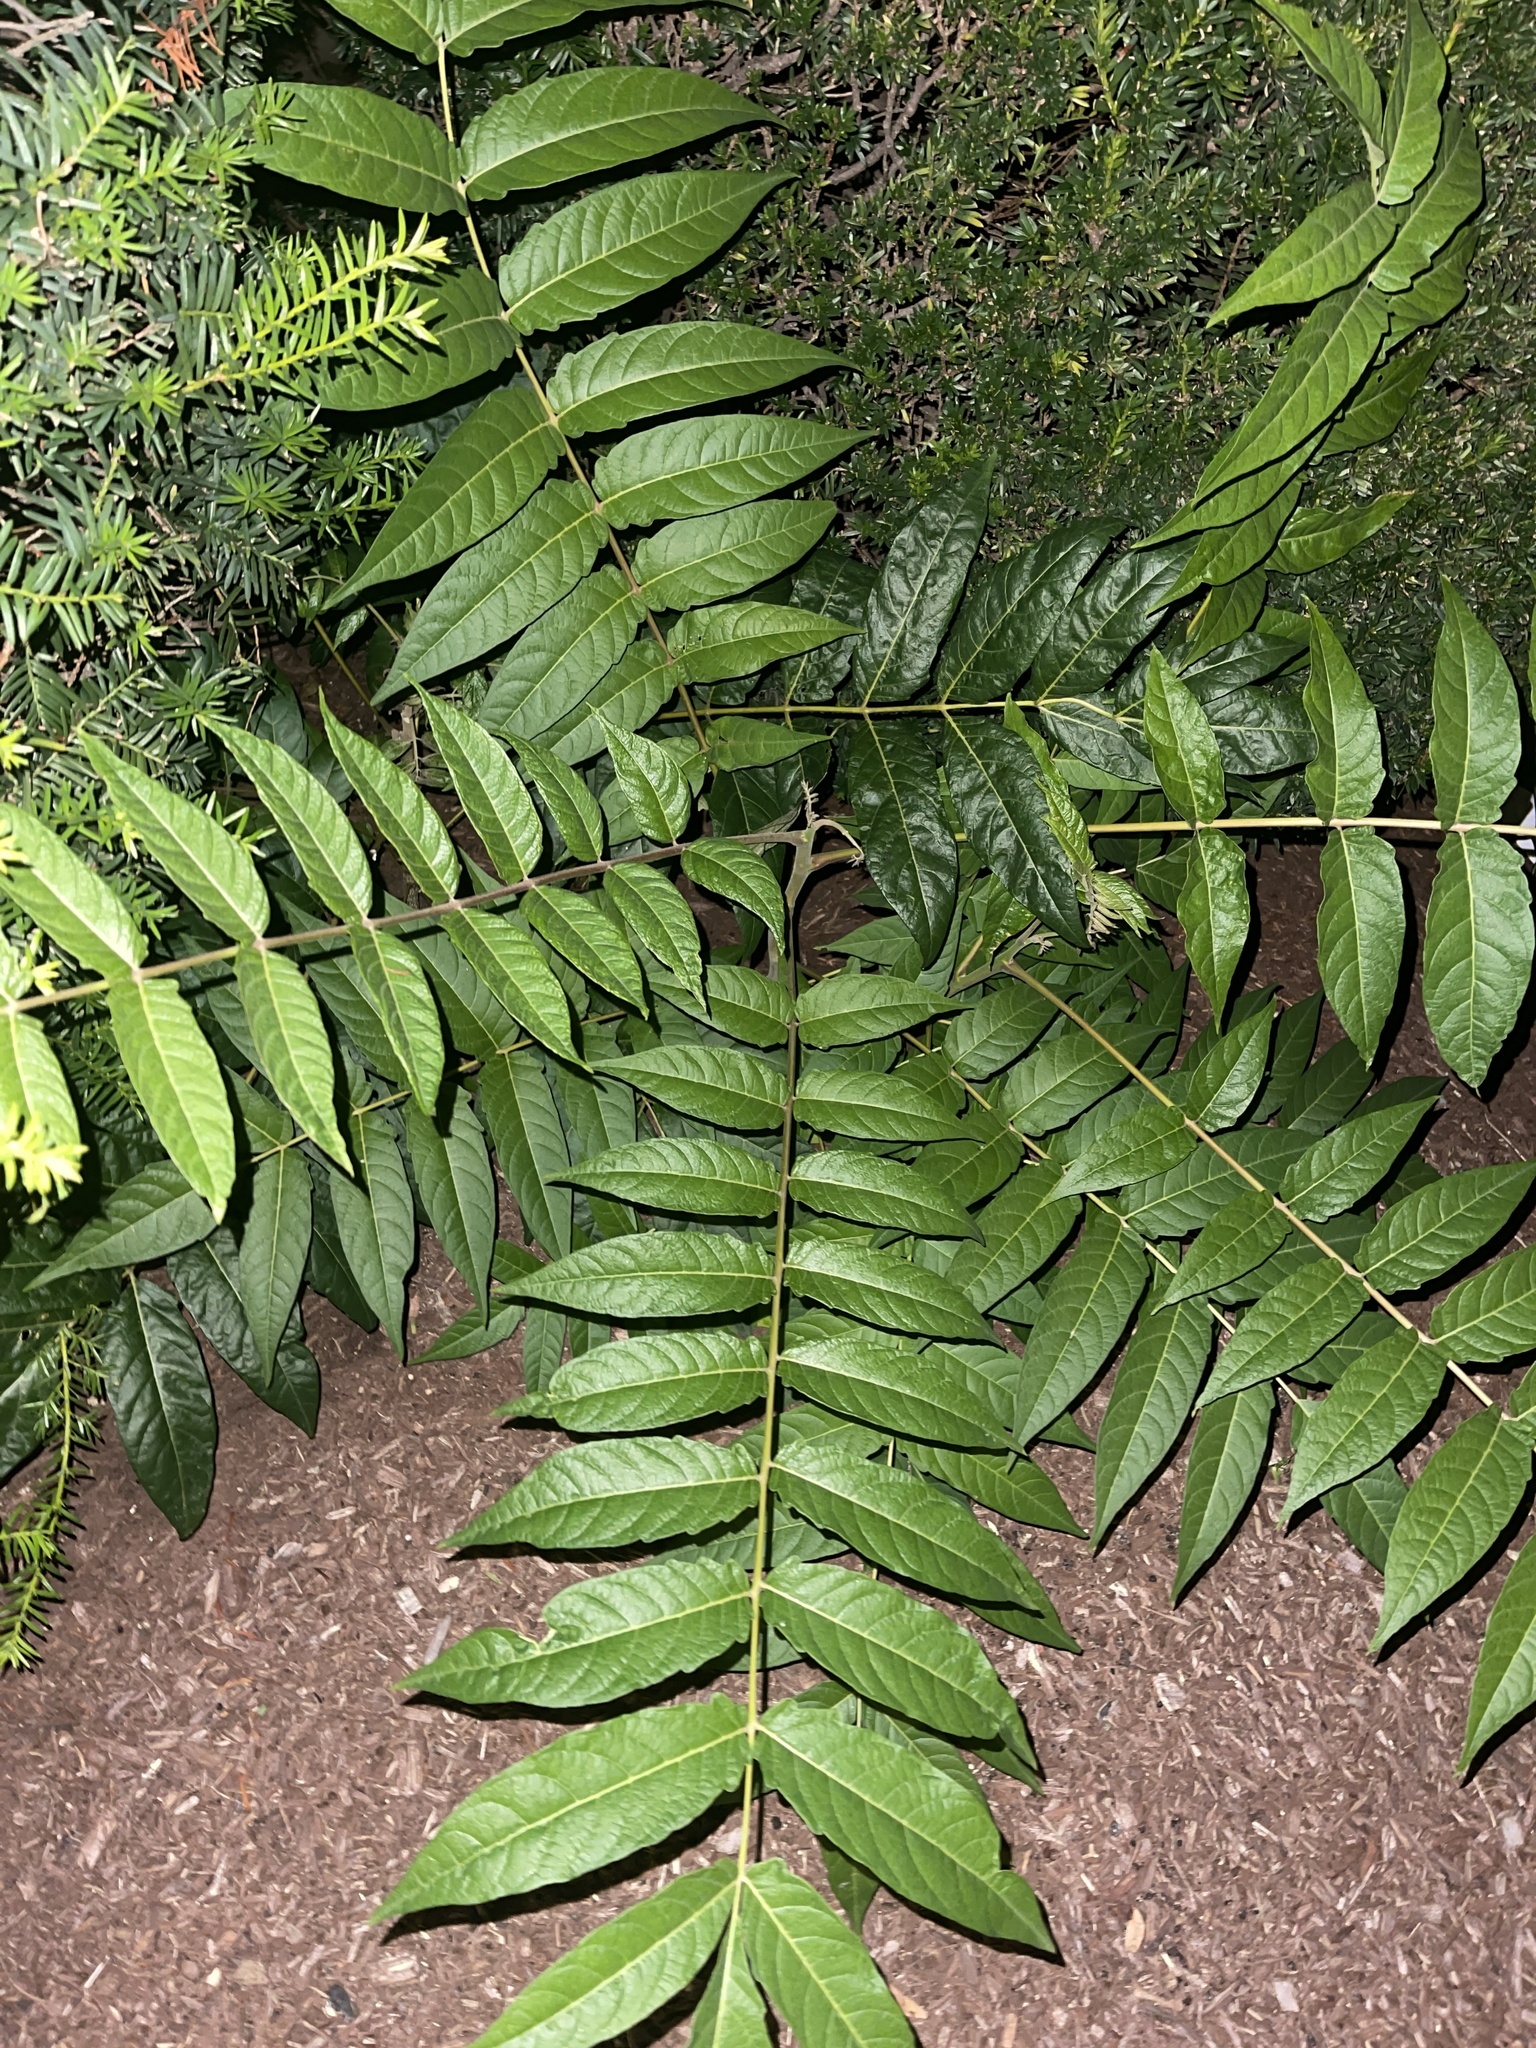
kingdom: Plantae
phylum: Tracheophyta
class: Magnoliopsida
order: Sapindales
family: Simaroubaceae
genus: Ailanthus
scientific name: Ailanthus altissima
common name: Tree-of-heaven
